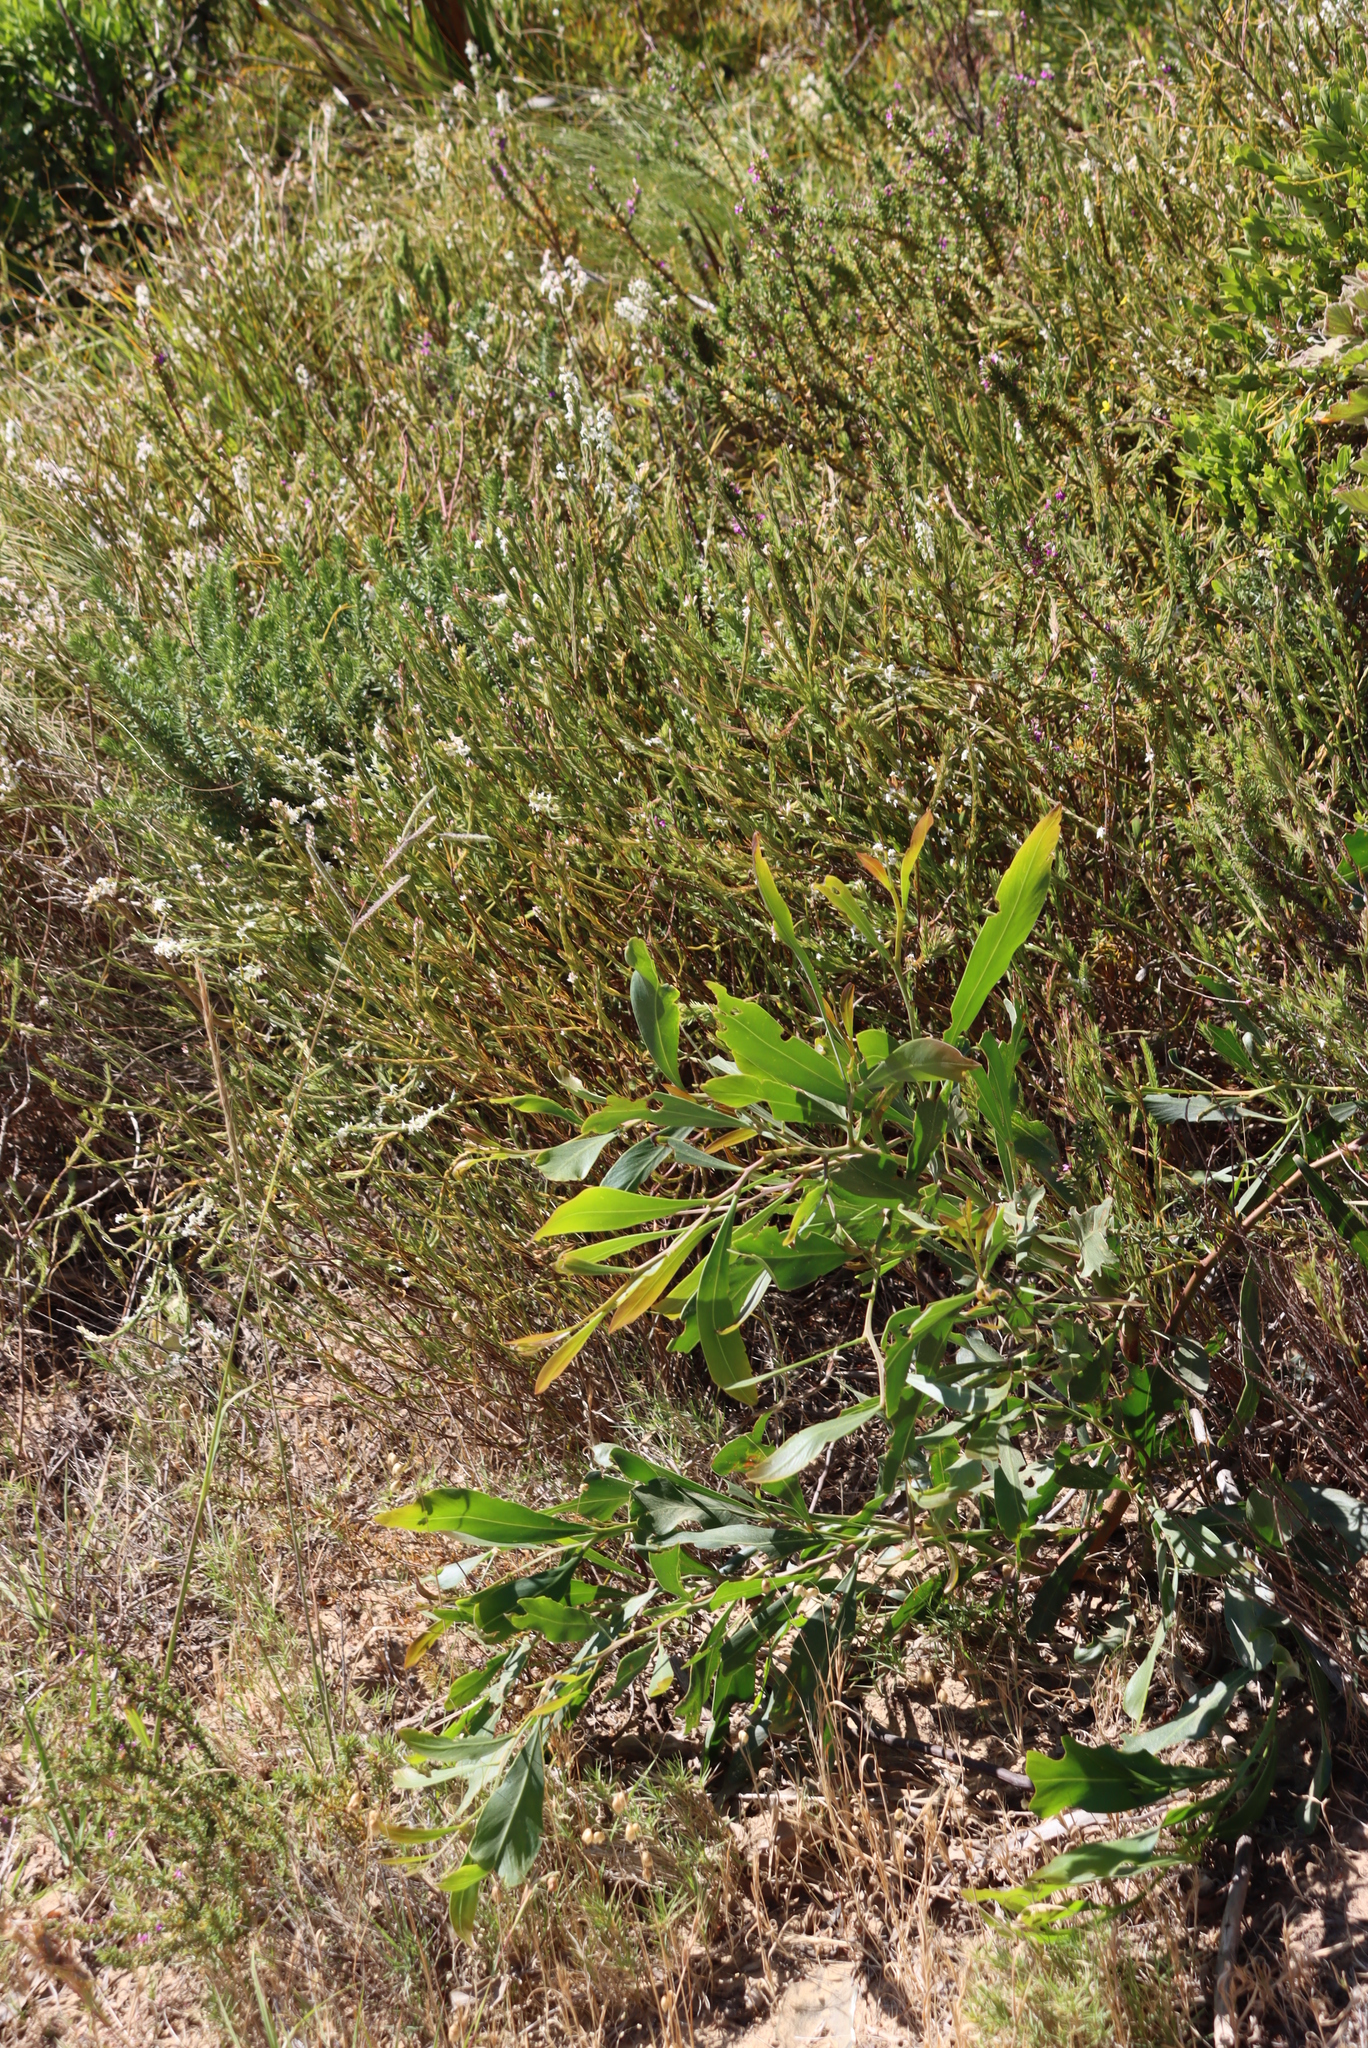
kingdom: Plantae
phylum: Tracheophyta
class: Magnoliopsida
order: Fabales
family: Fabaceae
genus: Acacia
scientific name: Acacia saligna
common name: Orange wattle
